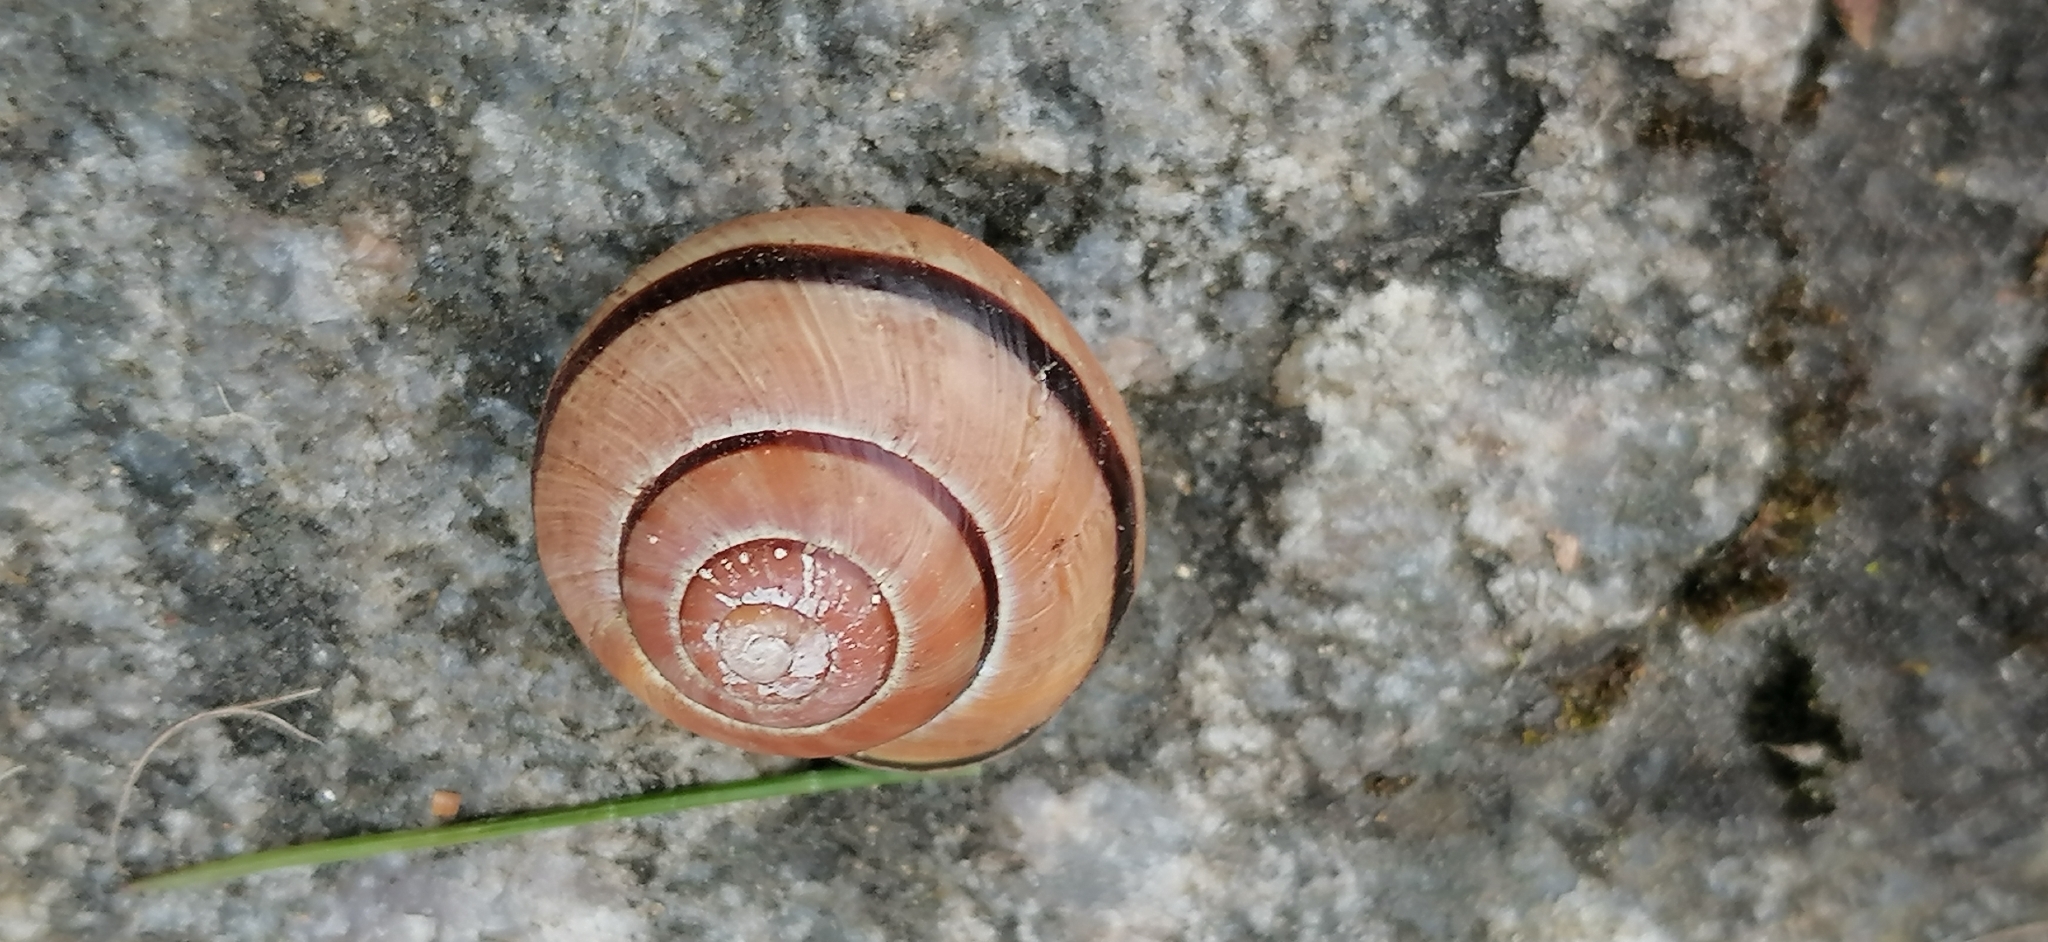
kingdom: Animalia
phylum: Mollusca
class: Gastropoda
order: Stylommatophora
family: Helicidae
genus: Cepaea
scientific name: Cepaea nemoralis
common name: Grovesnail
